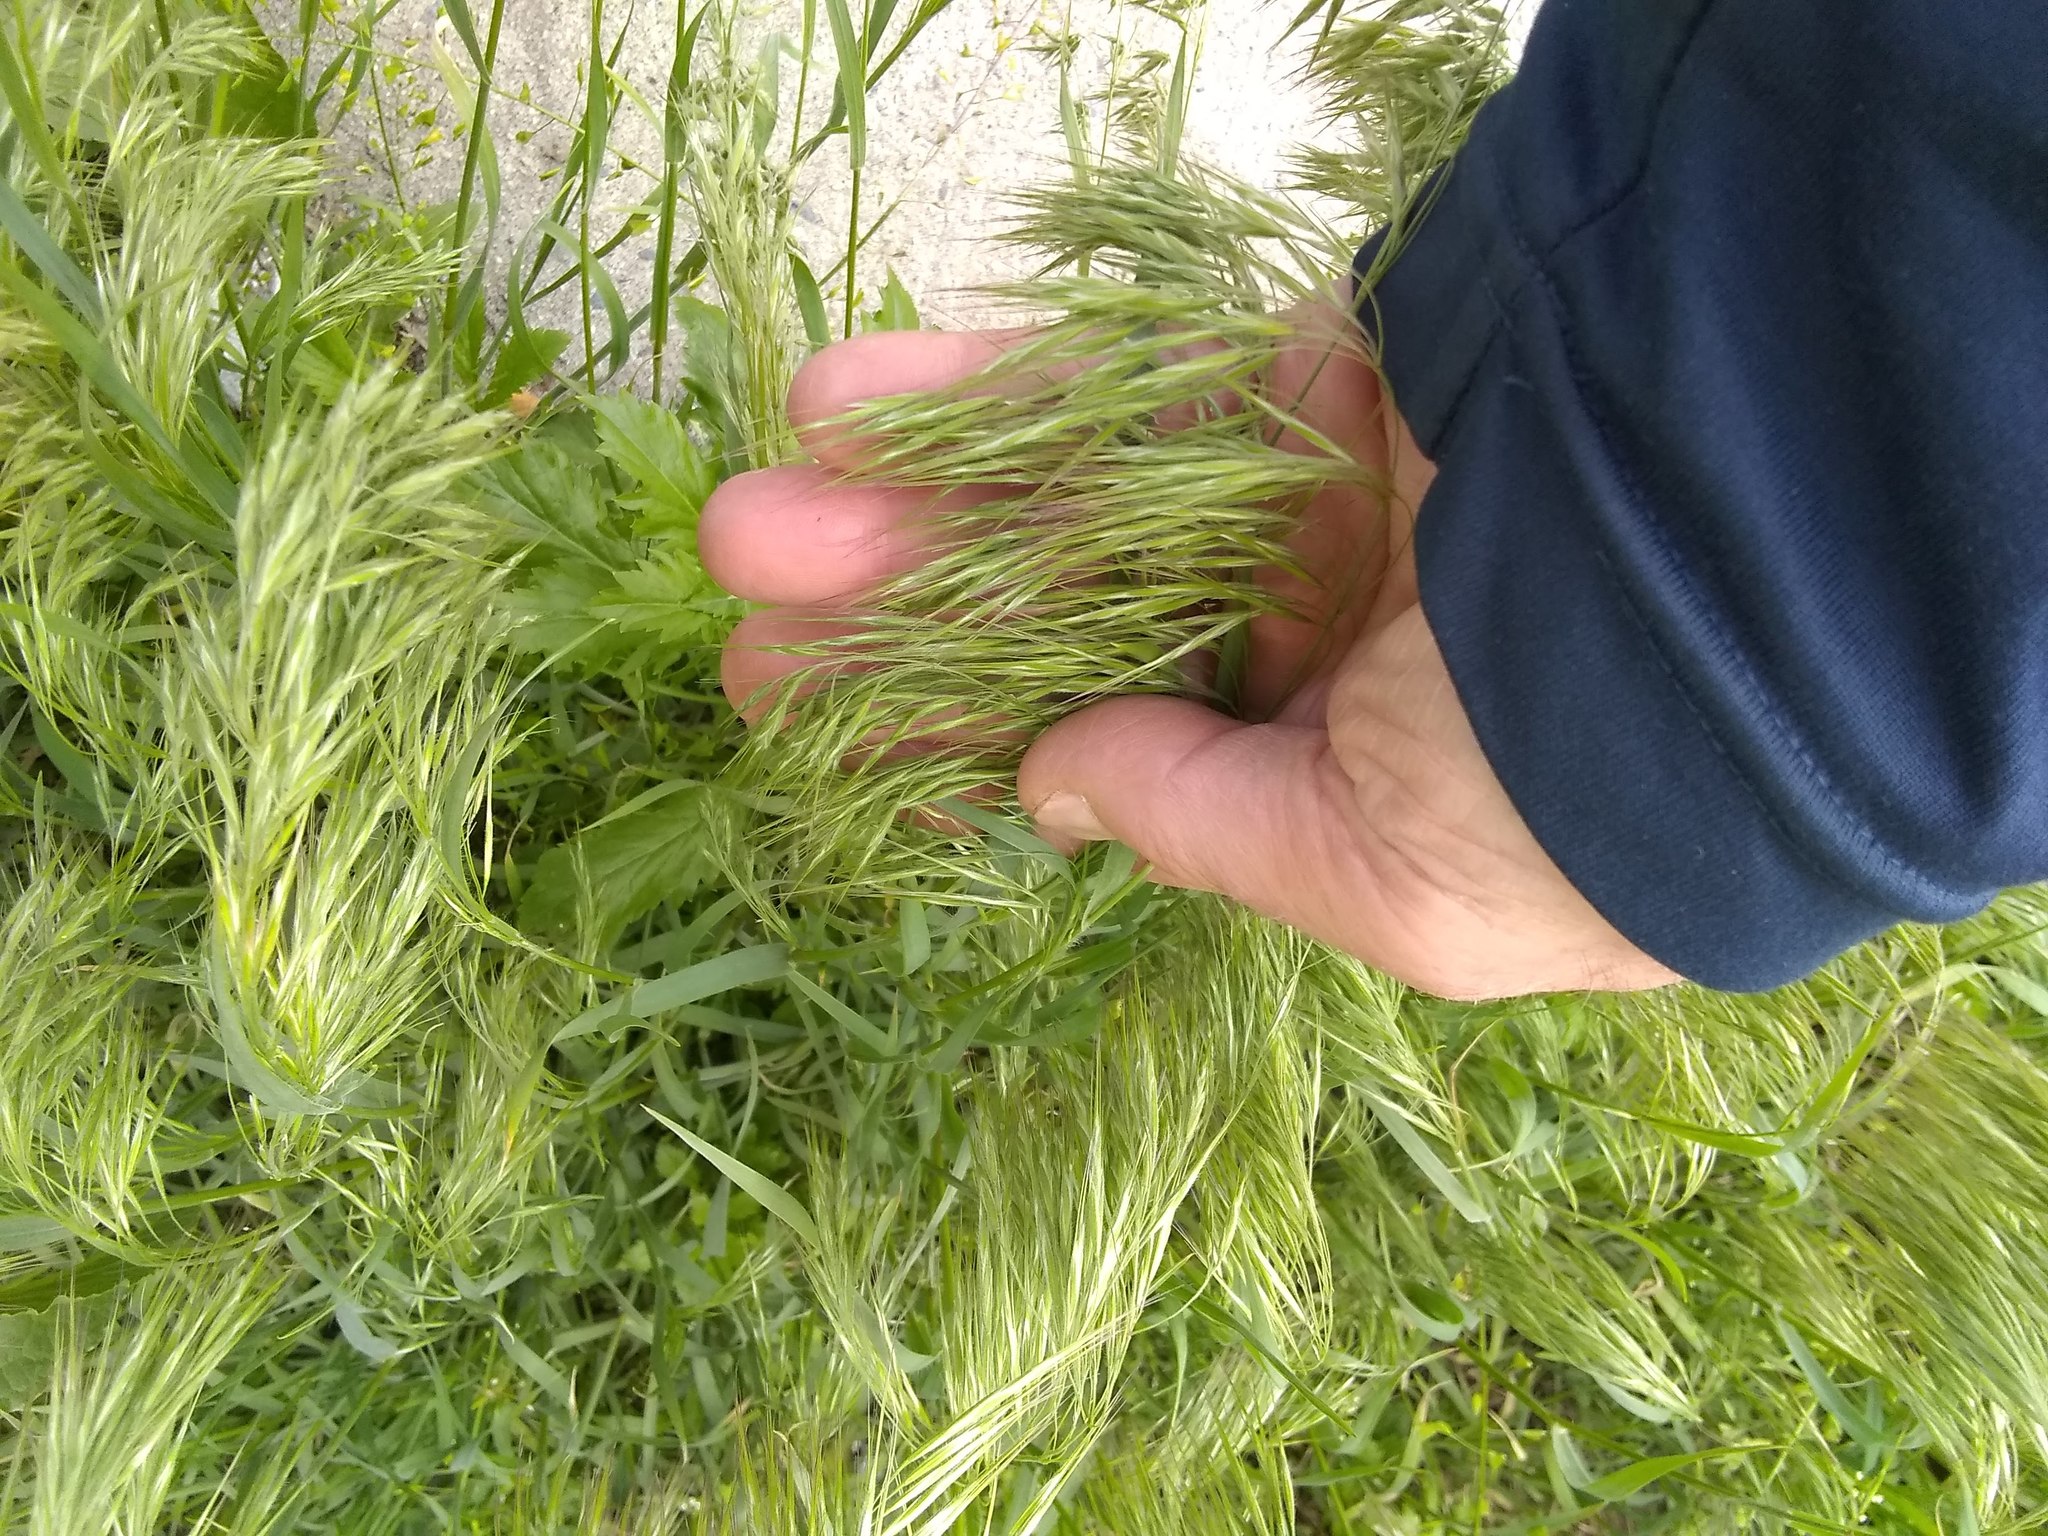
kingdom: Plantae
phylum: Tracheophyta
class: Liliopsida
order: Poales
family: Poaceae
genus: Bromus
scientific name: Bromus tectorum
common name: Cheatgrass
